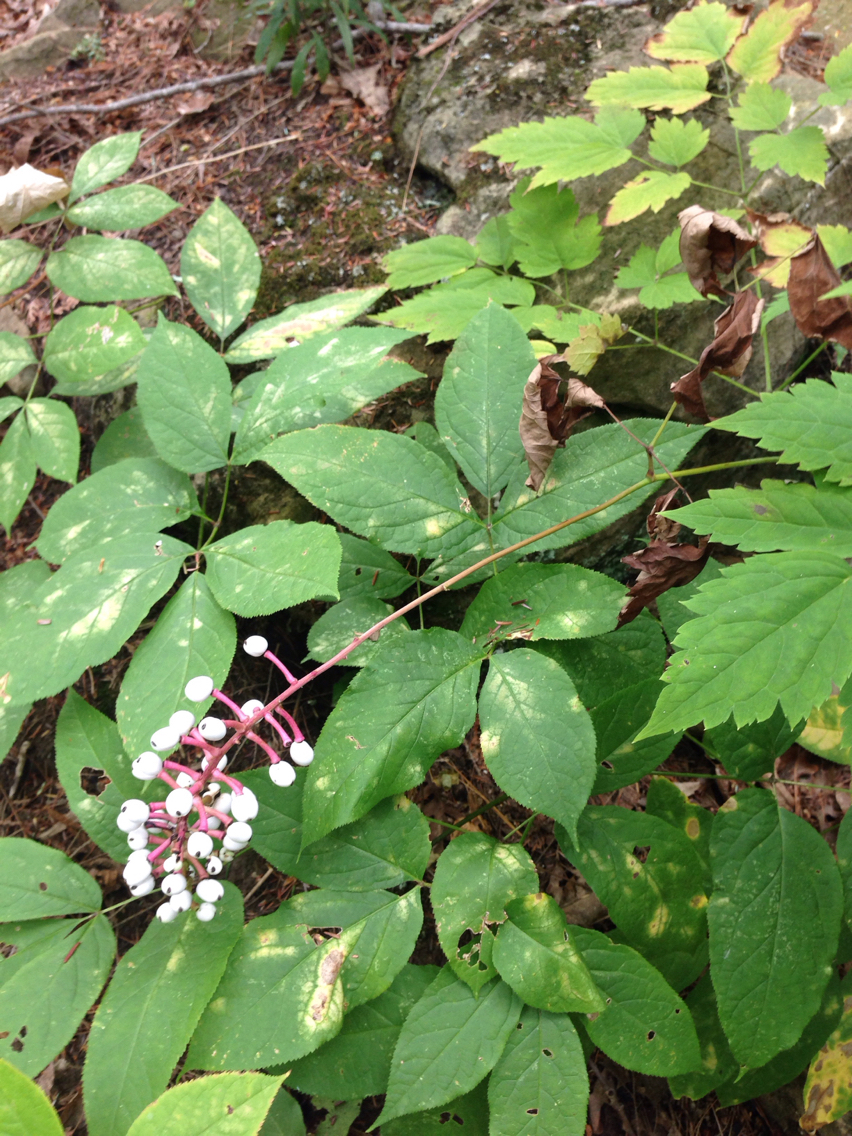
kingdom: Plantae
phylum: Tracheophyta
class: Magnoliopsida
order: Ranunculales
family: Ranunculaceae
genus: Actaea
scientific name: Actaea pachypoda
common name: Doll's-eyes
